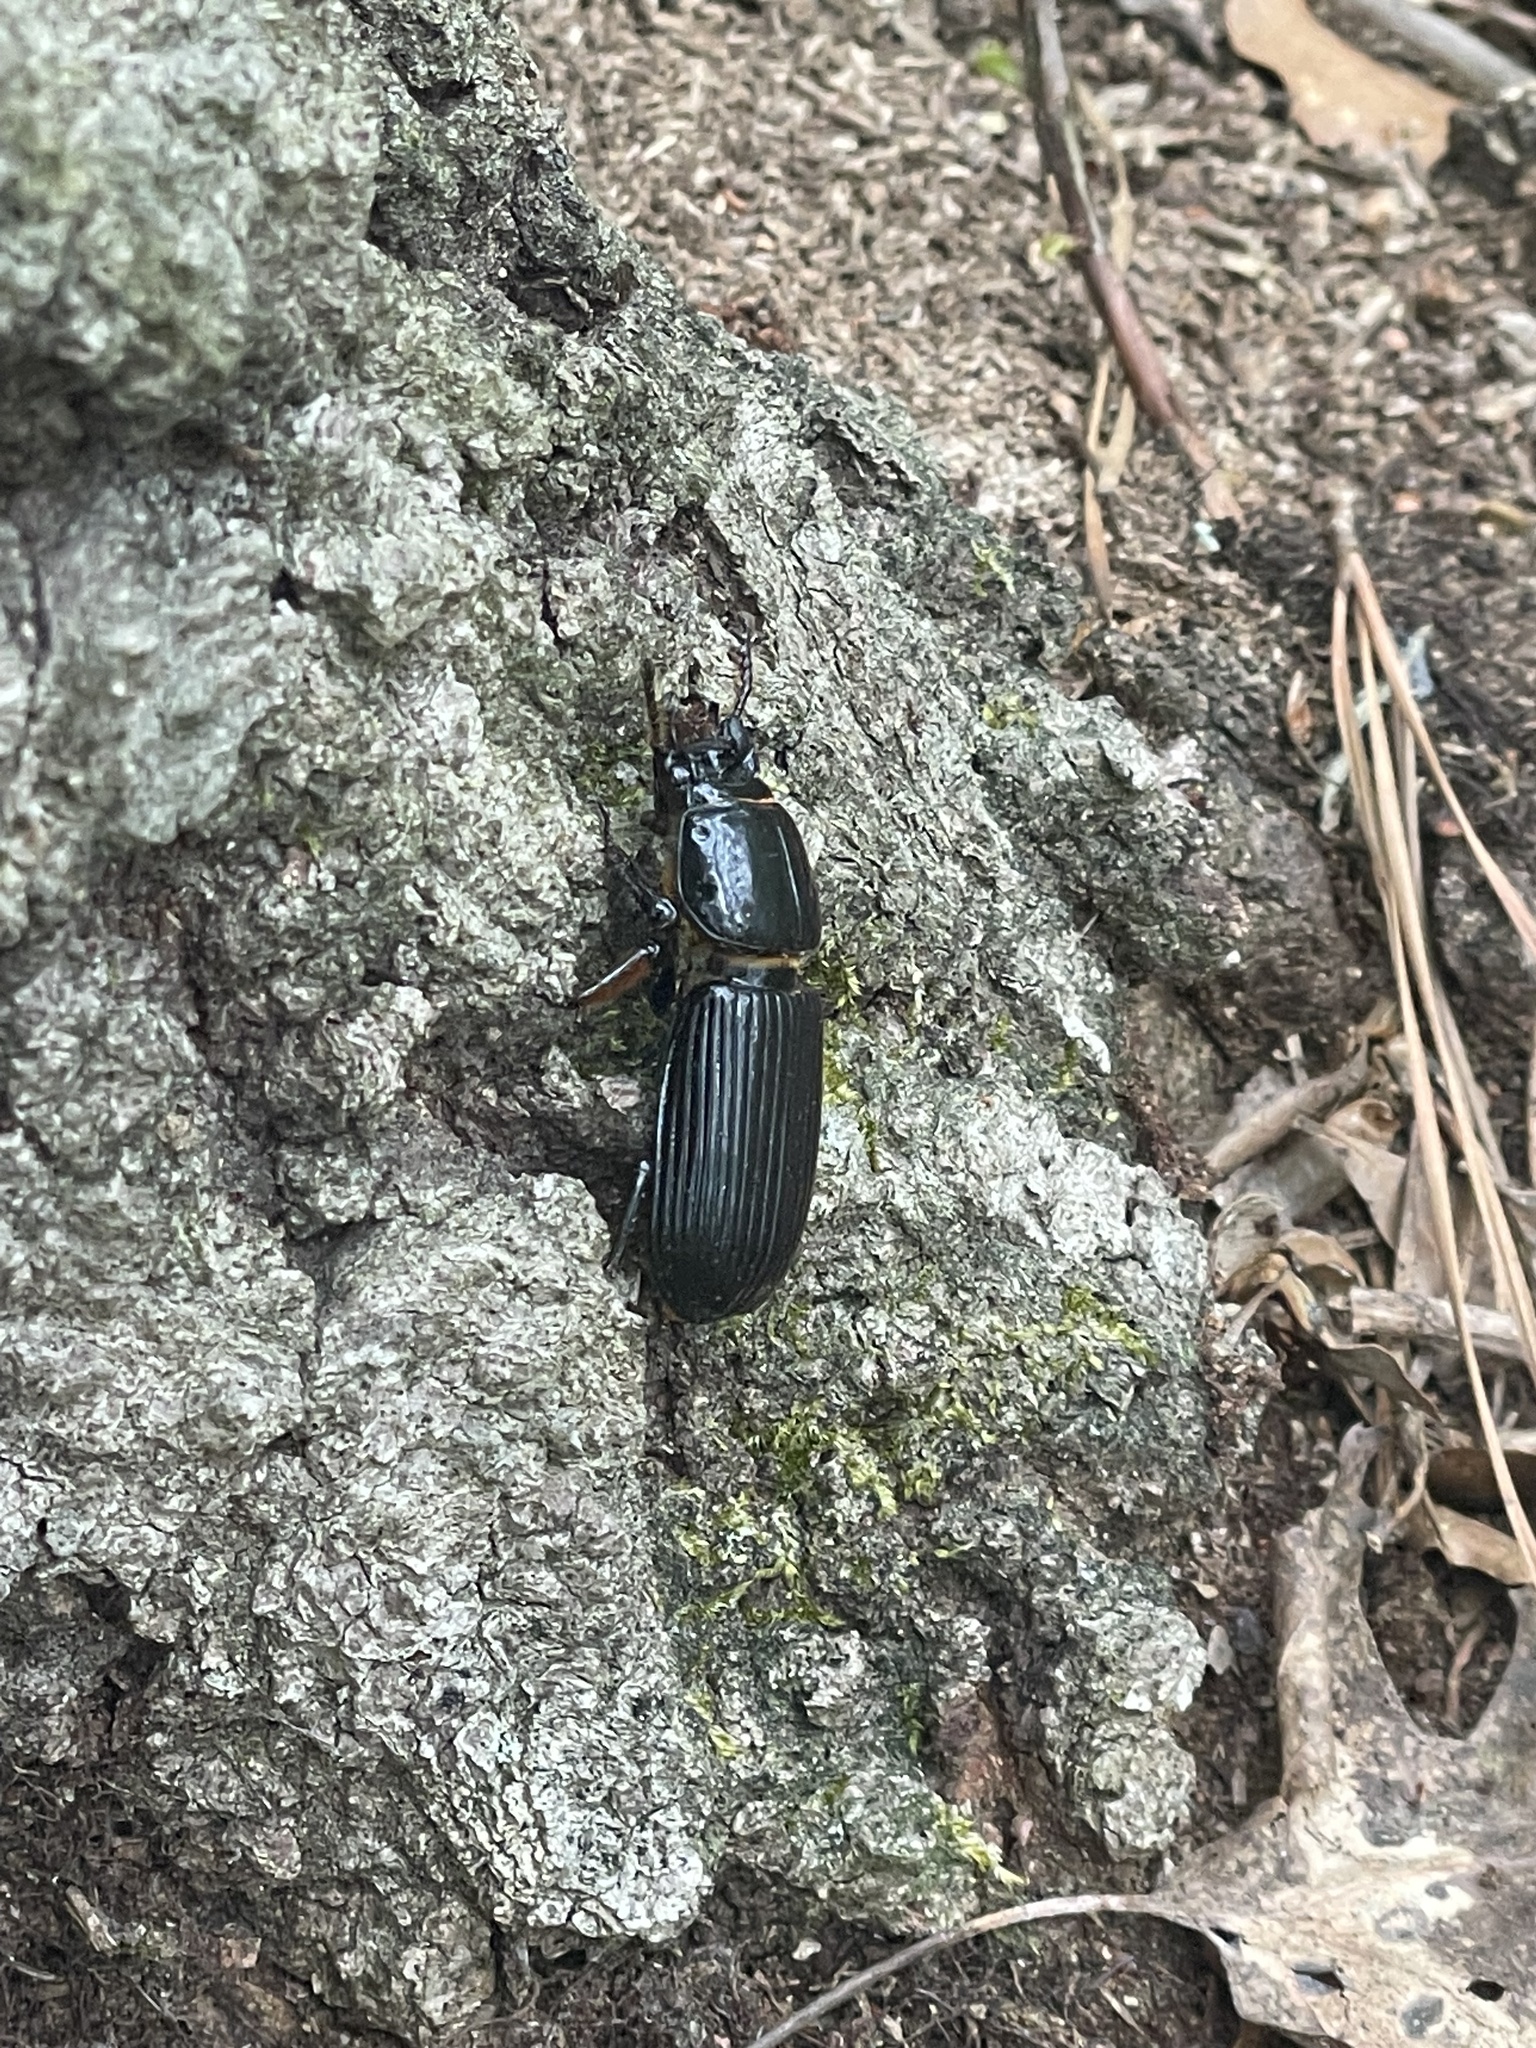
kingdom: Animalia
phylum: Arthropoda
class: Insecta
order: Coleoptera
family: Passalidae
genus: Odontotaenius
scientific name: Odontotaenius disjunctus
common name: Patent leather beetle
